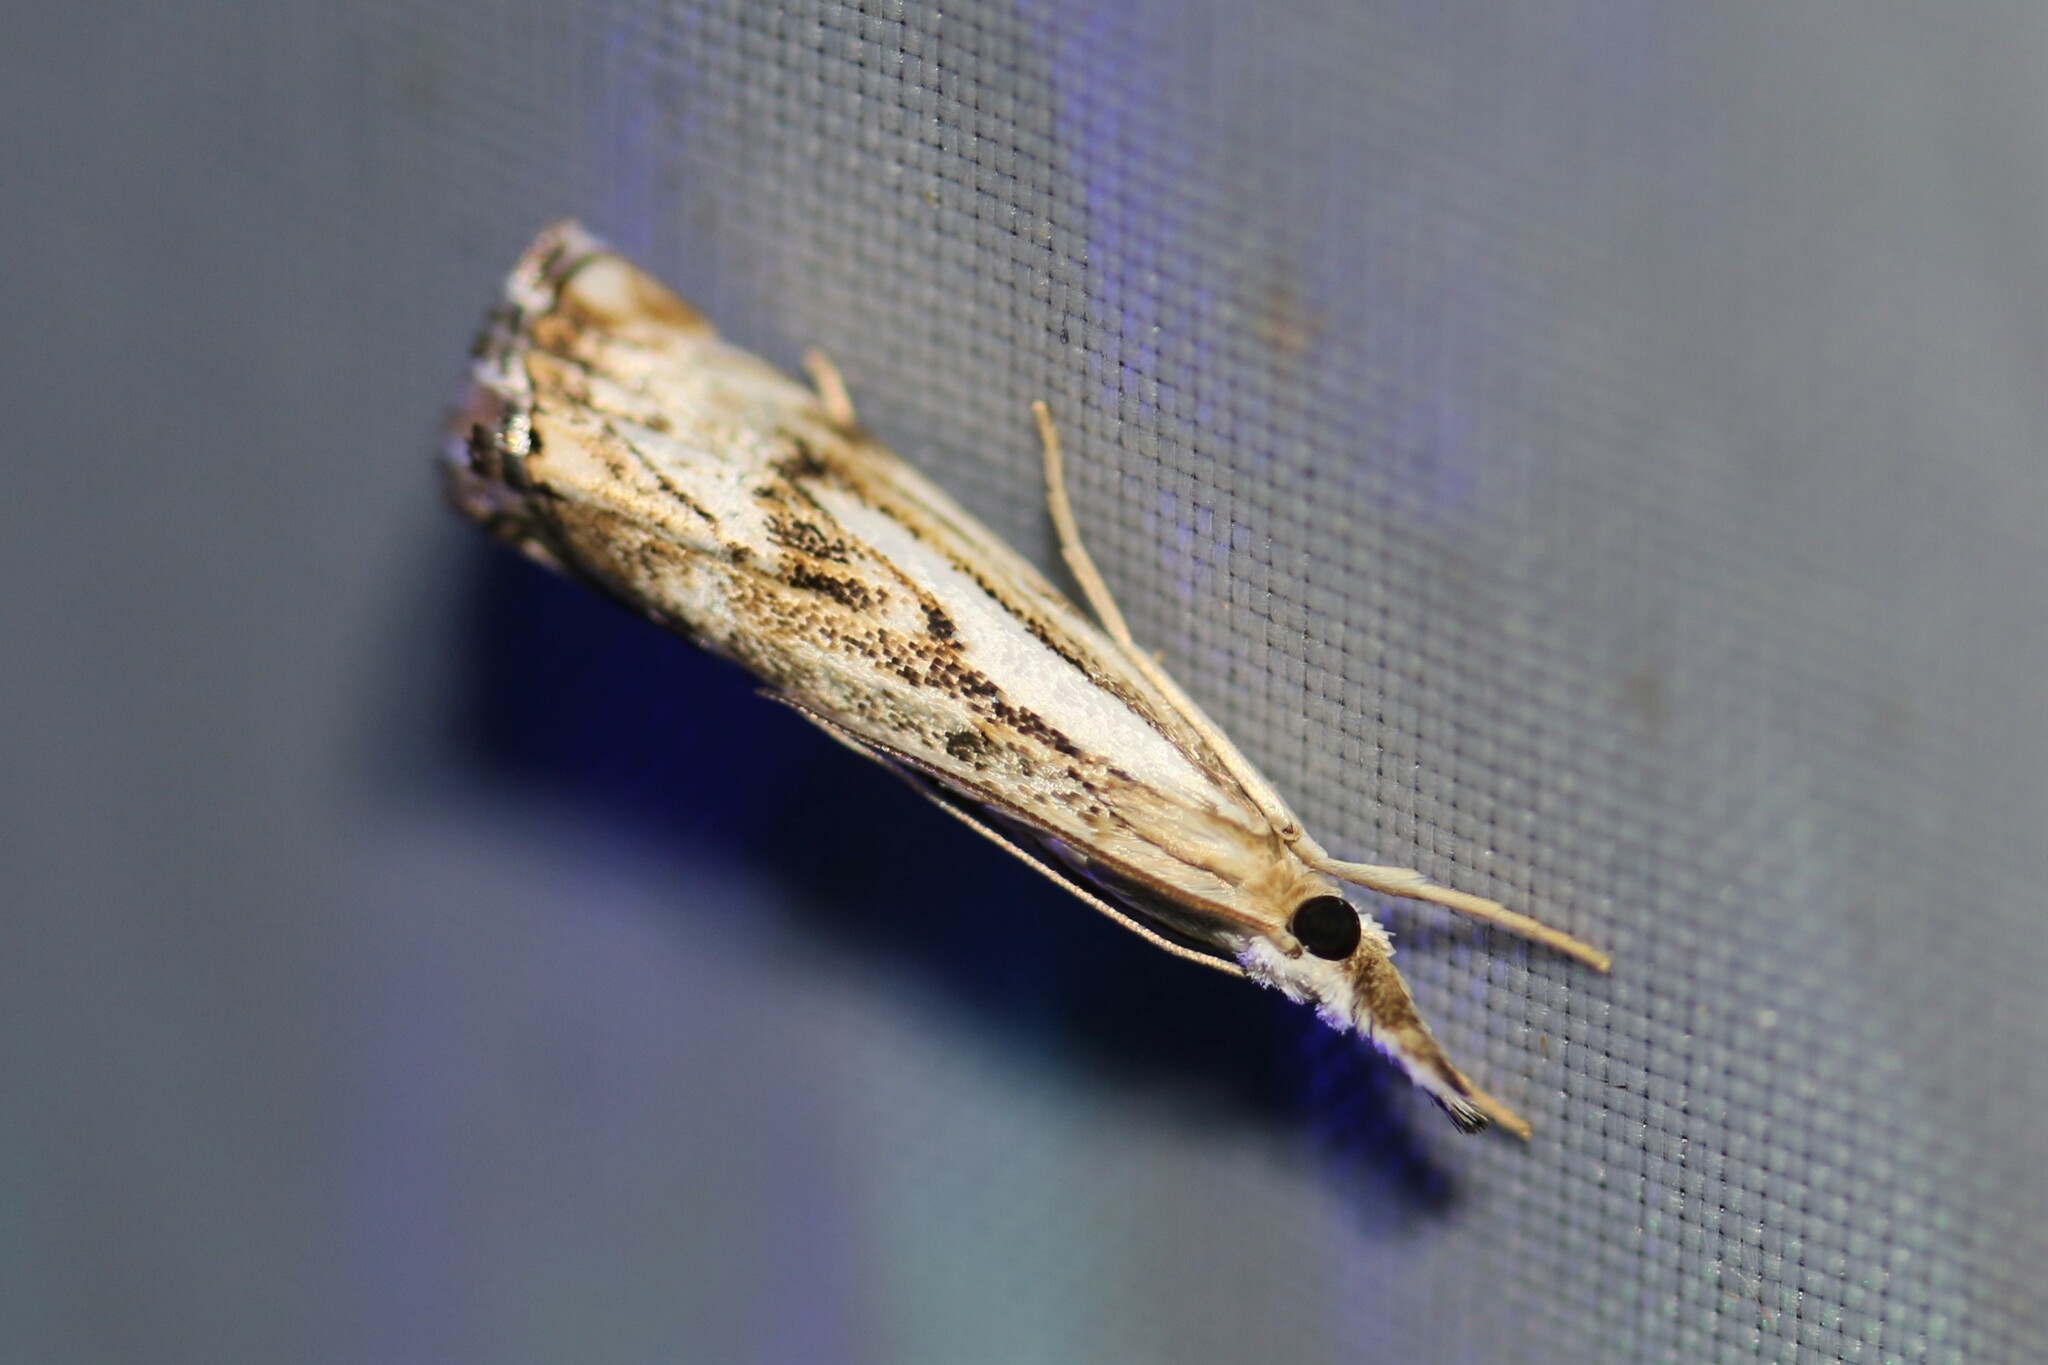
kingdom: Animalia
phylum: Arthropoda
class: Insecta
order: Lepidoptera
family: Crambidae
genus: Catoptria
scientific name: Catoptria falsella
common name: Chequered grass-veneer
